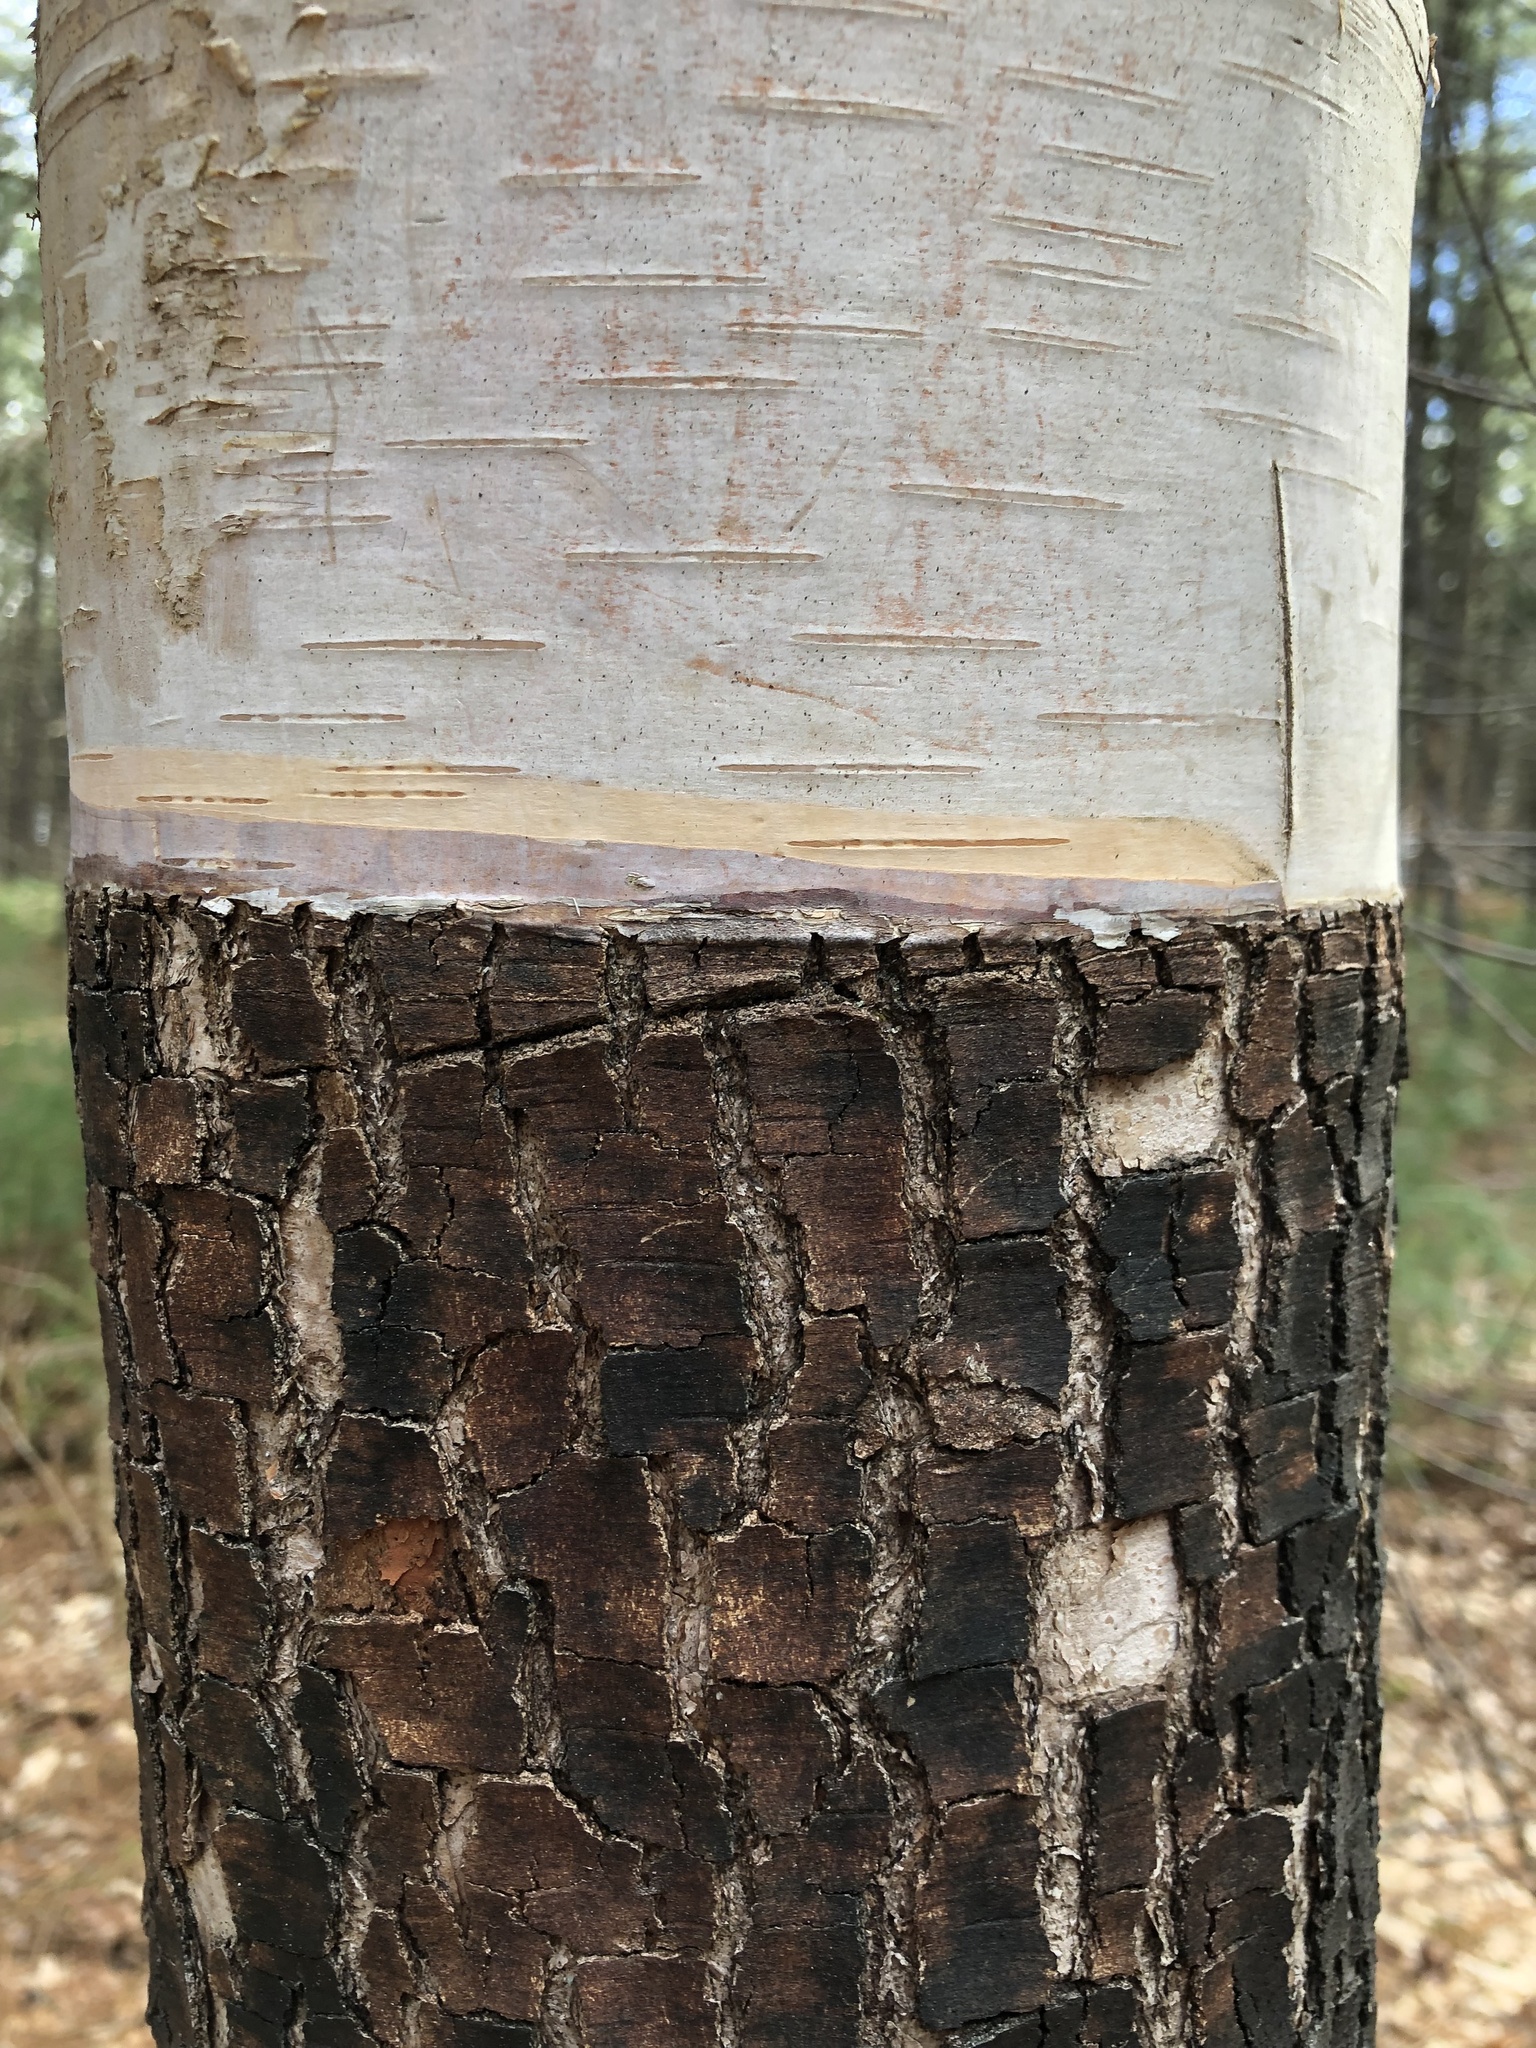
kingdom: Plantae
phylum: Tracheophyta
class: Magnoliopsida
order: Fagales
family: Betulaceae
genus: Betula
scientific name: Betula papyrifera
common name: Paper birch
